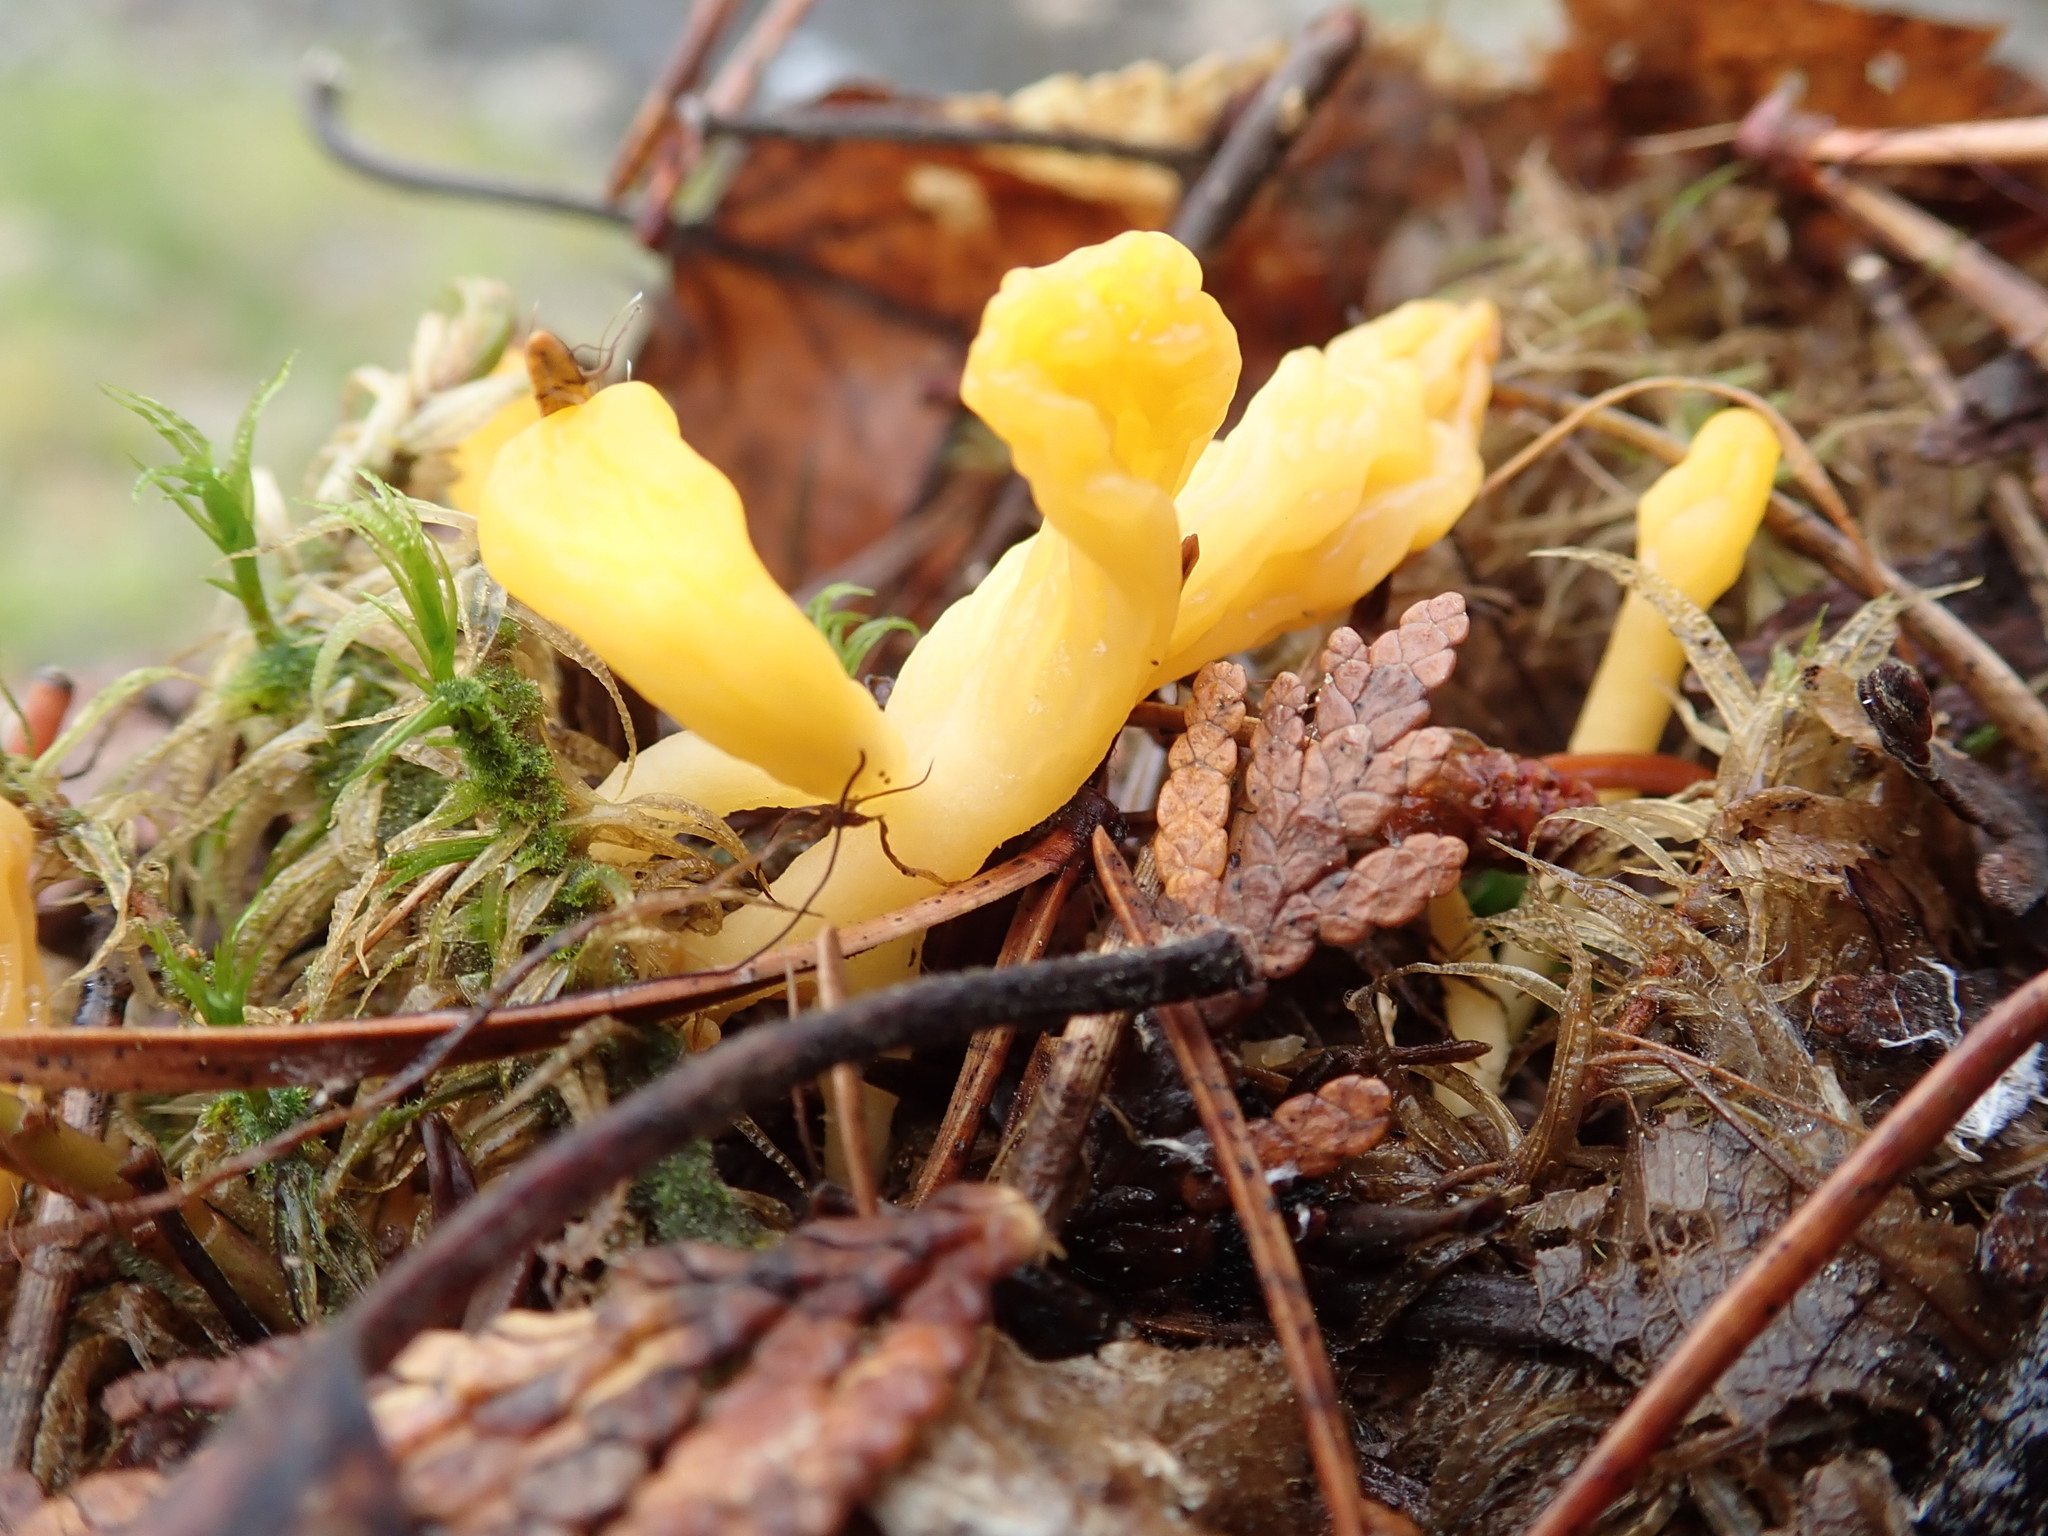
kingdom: Fungi
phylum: Ascomycota
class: Leotiomycetes
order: Rhytismatales
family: Cudoniaceae
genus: Spathularia
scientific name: Spathularia flavida
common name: Yellow fan
